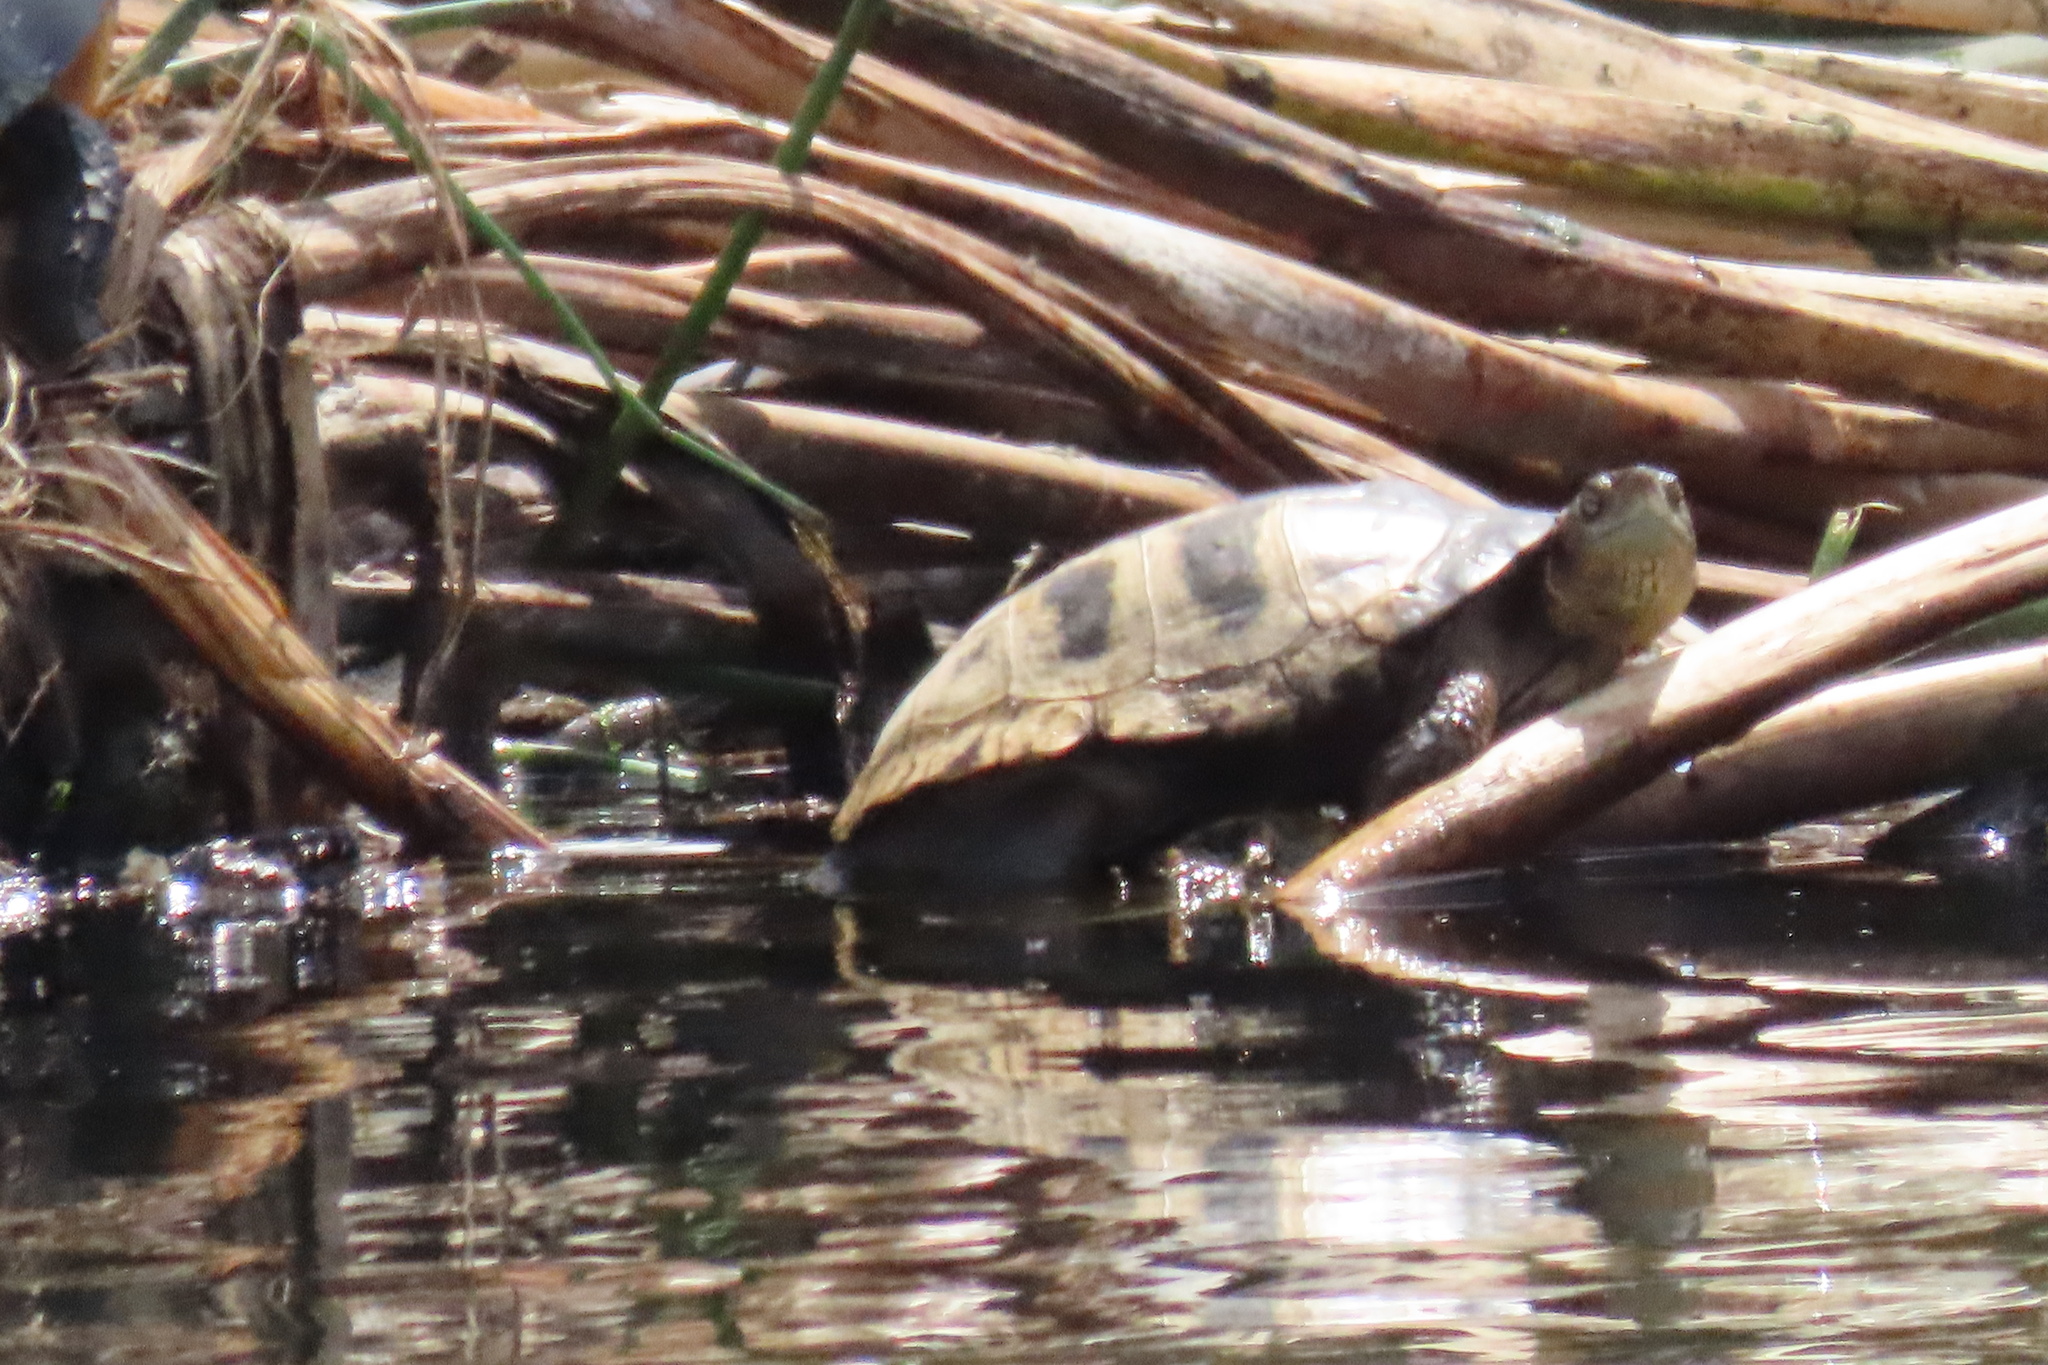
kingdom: Animalia
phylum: Chordata
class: Testudines
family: Emydidae
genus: Actinemys
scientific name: Actinemys marmorata
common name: Western pond turtle
